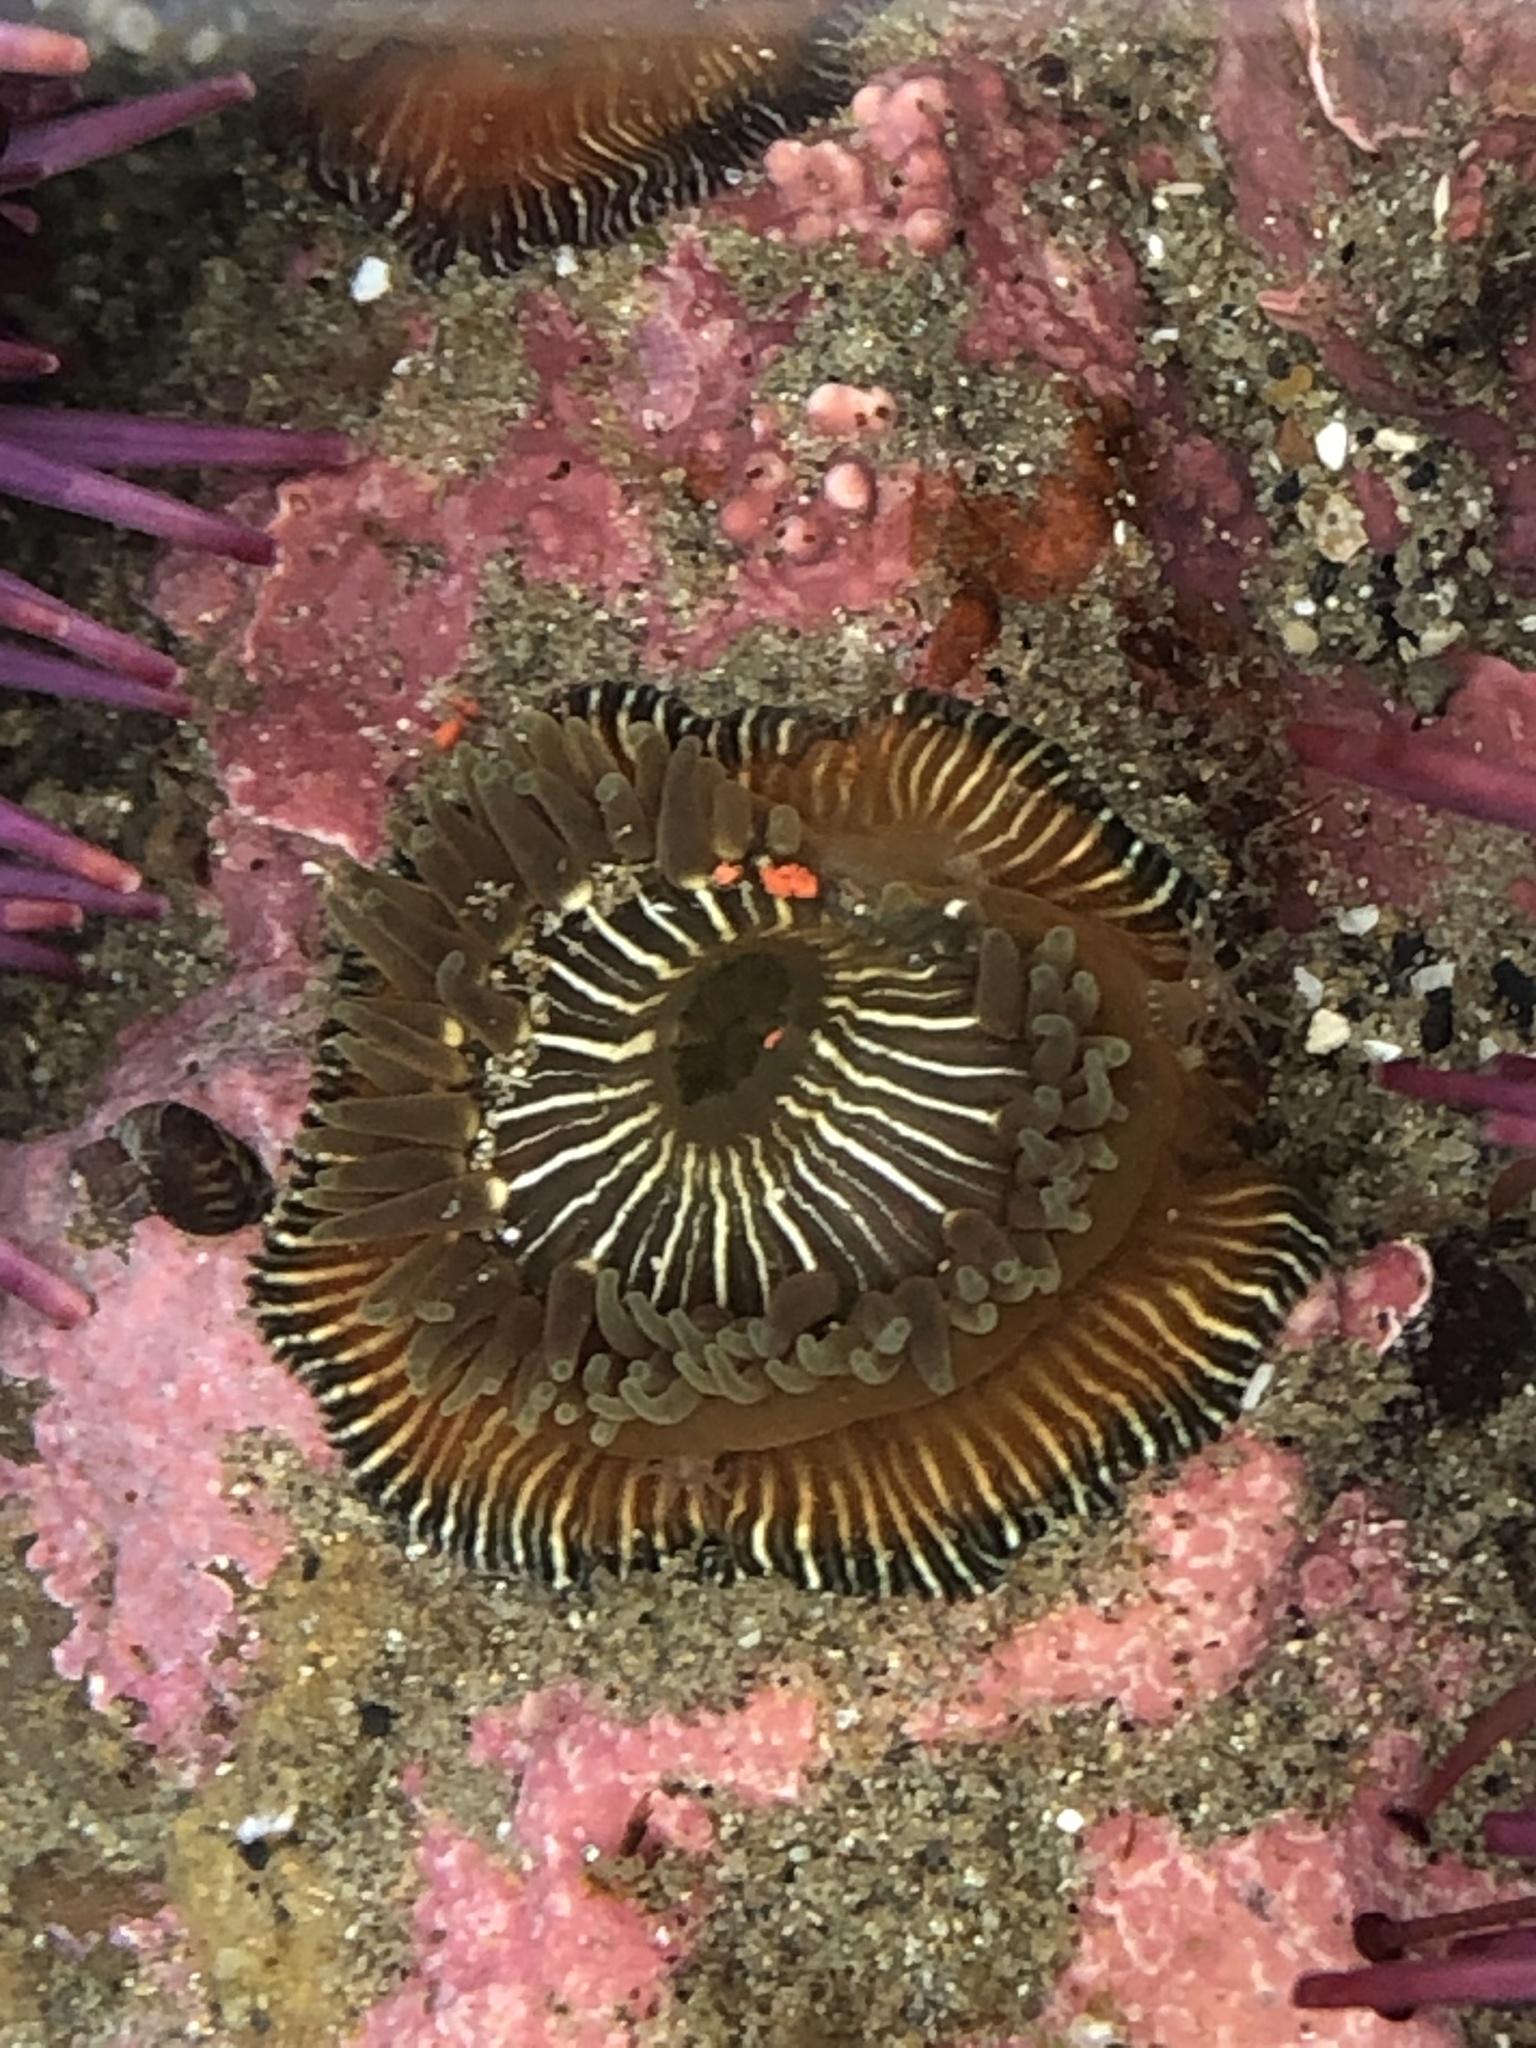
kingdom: Animalia
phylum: Cnidaria
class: Anthozoa
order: Actiniaria
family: Actiniidae
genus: Epiactis
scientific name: Epiactis prolifera
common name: Brooding anemone
